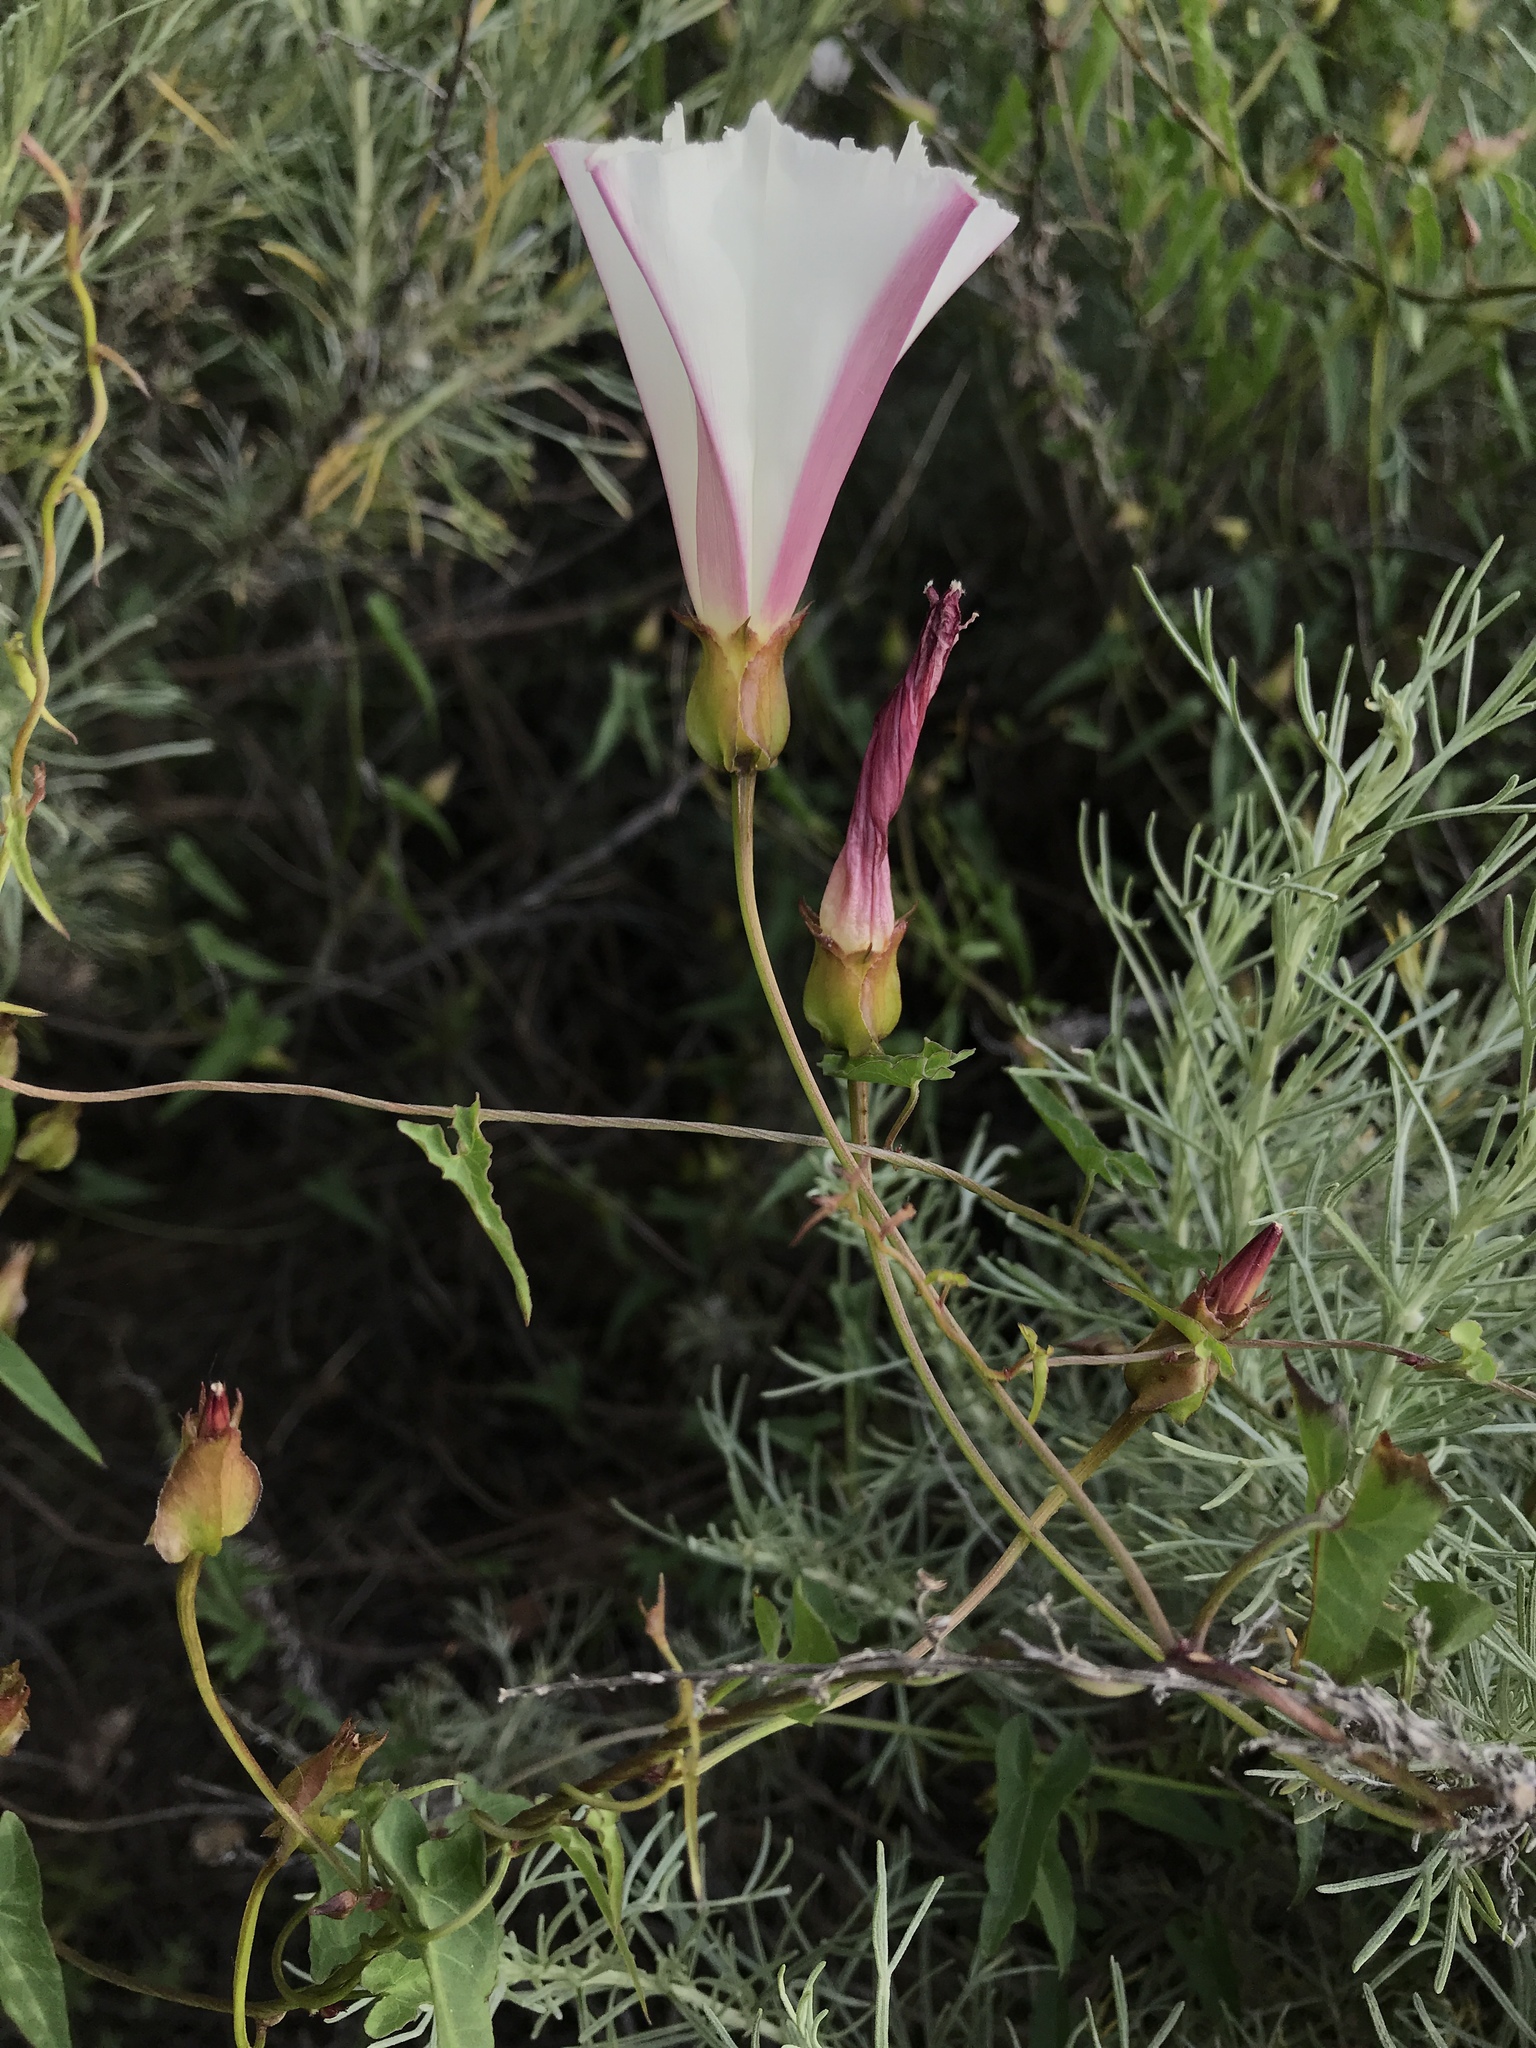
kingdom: Plantae
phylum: Tracheophyta
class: Magnoliopsida
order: Solanales
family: Convolvulaceae
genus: Calystegia
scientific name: Calystegia macrostegia
